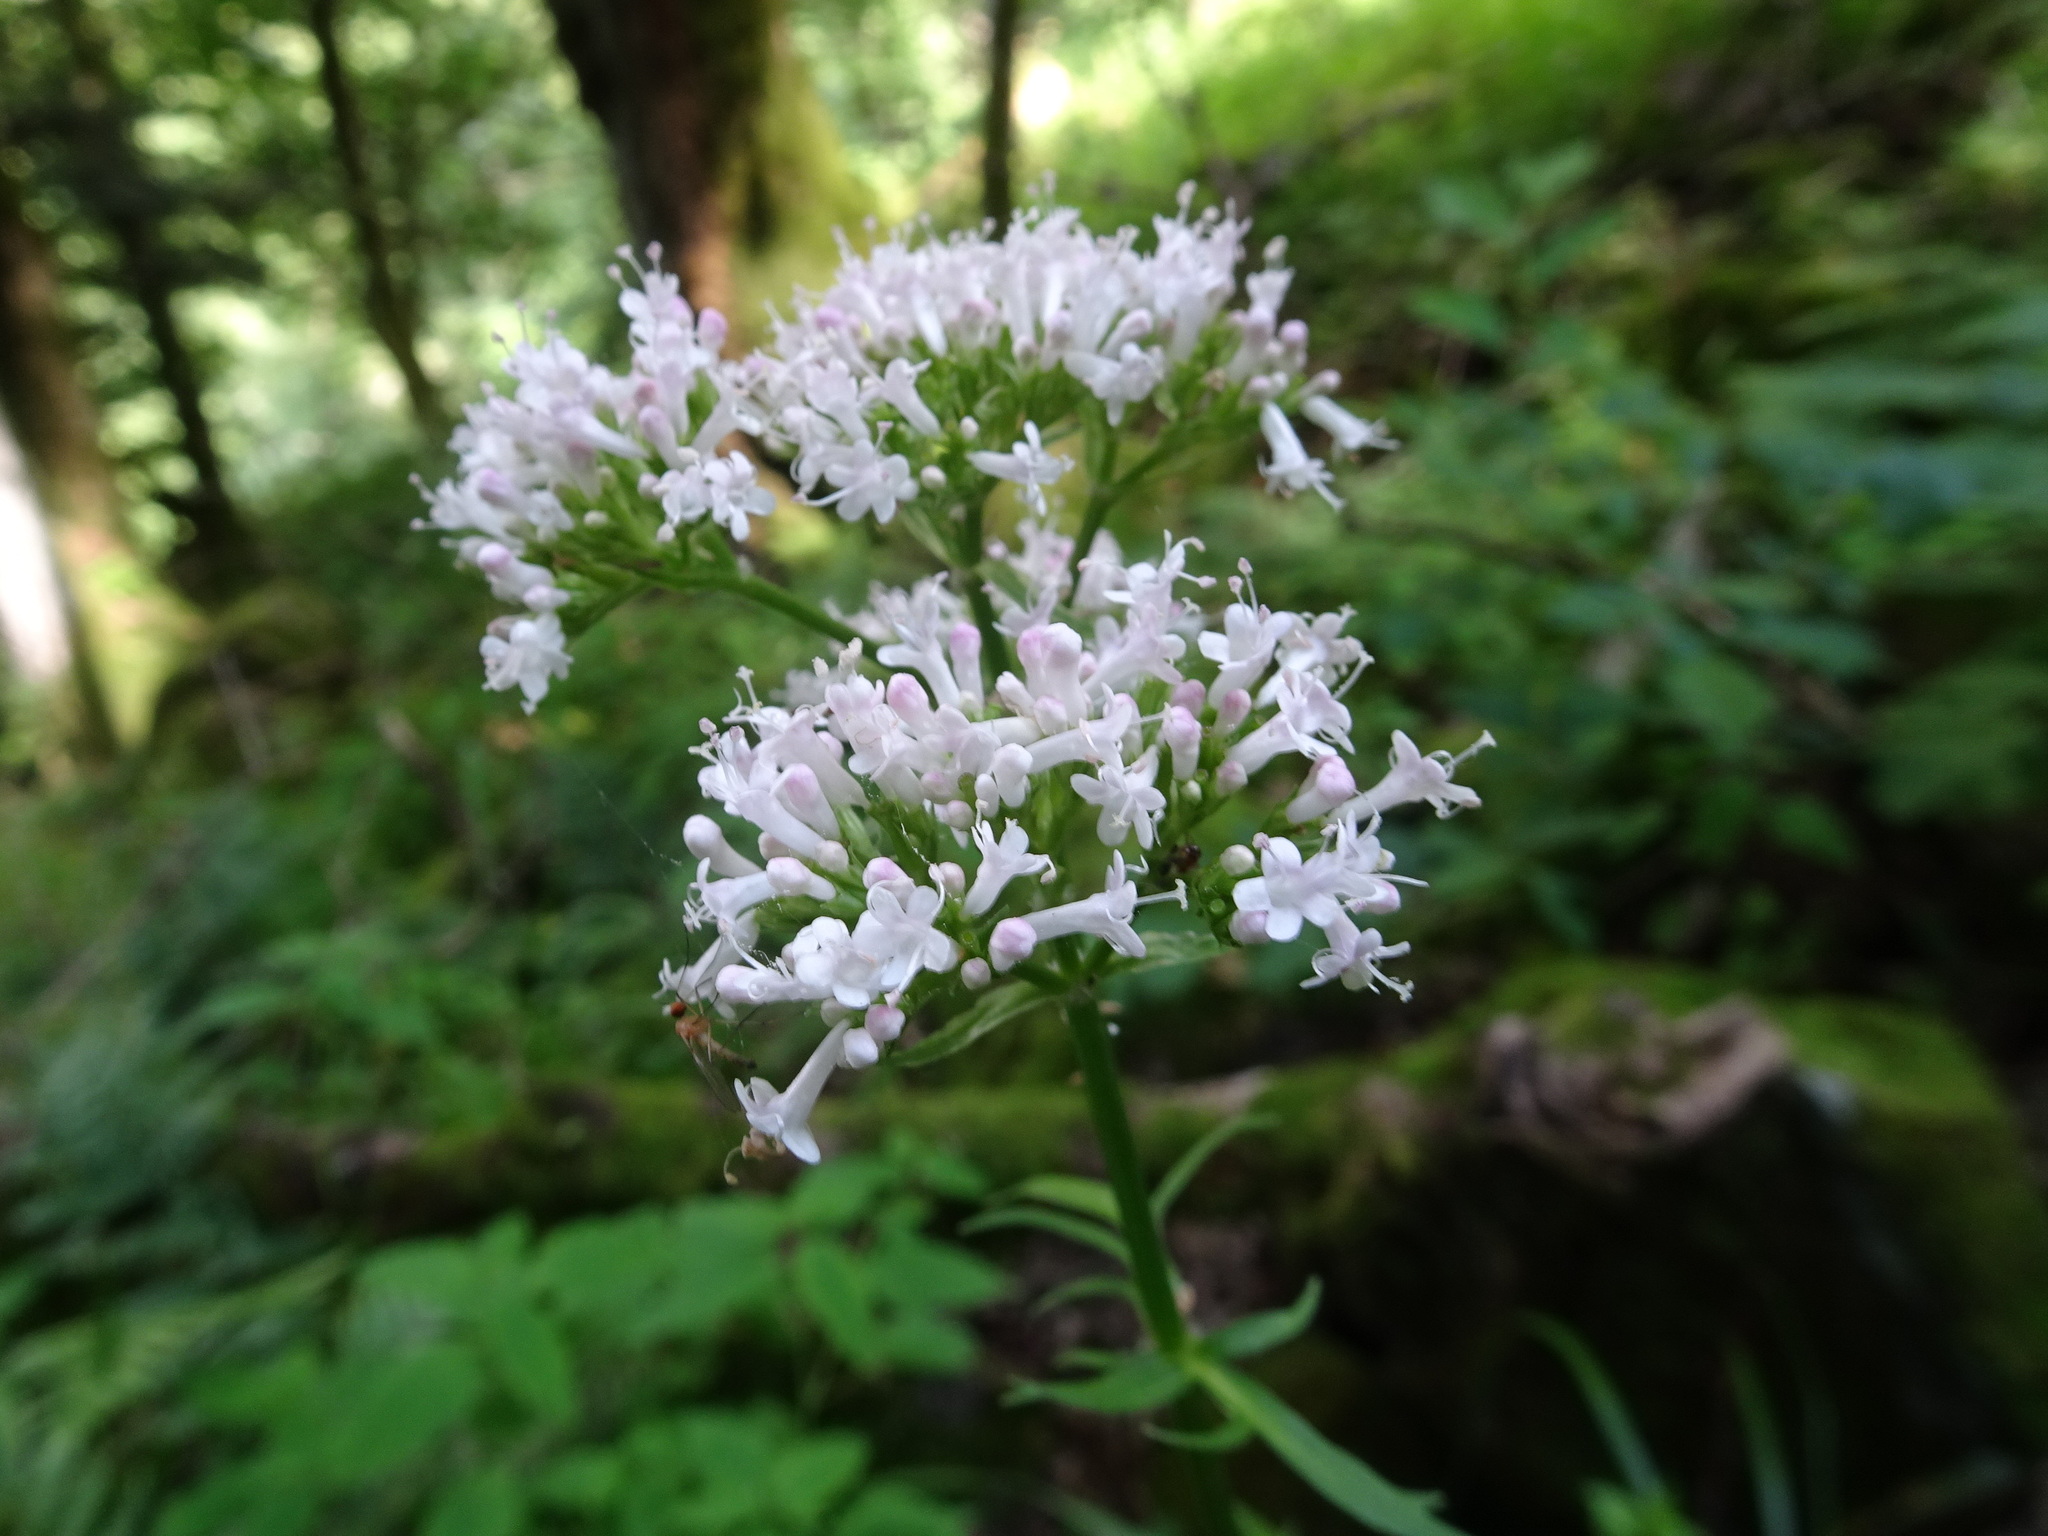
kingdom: Plantae
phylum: Tracheophyta
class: Magnoliopsida
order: Dipsacales
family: Caprifoliaceae
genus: Valeriana
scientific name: Valeriana officinalis
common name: Common valerian
